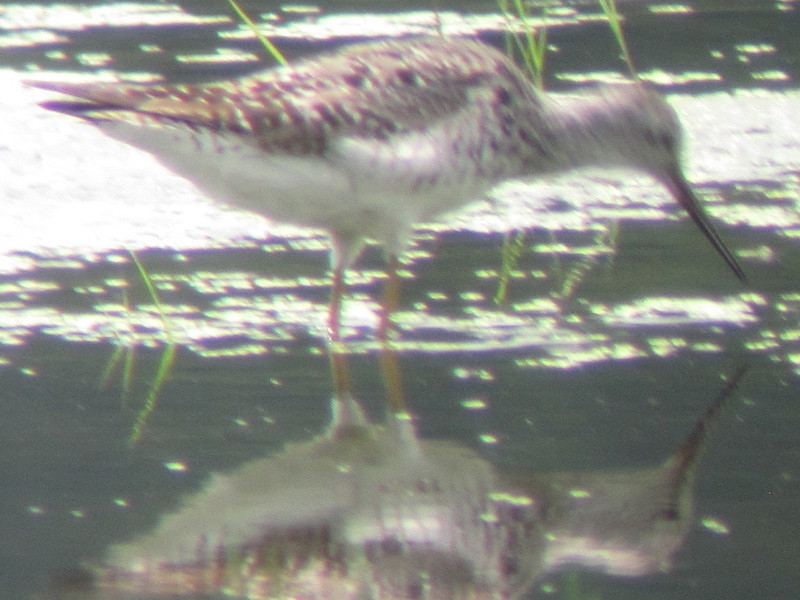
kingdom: Animalia
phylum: Chordata
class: Aves
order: Charadriiformes
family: Scolopacidae
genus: Tringa
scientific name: Tringa melanoleuca
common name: Greater yellowlegs
